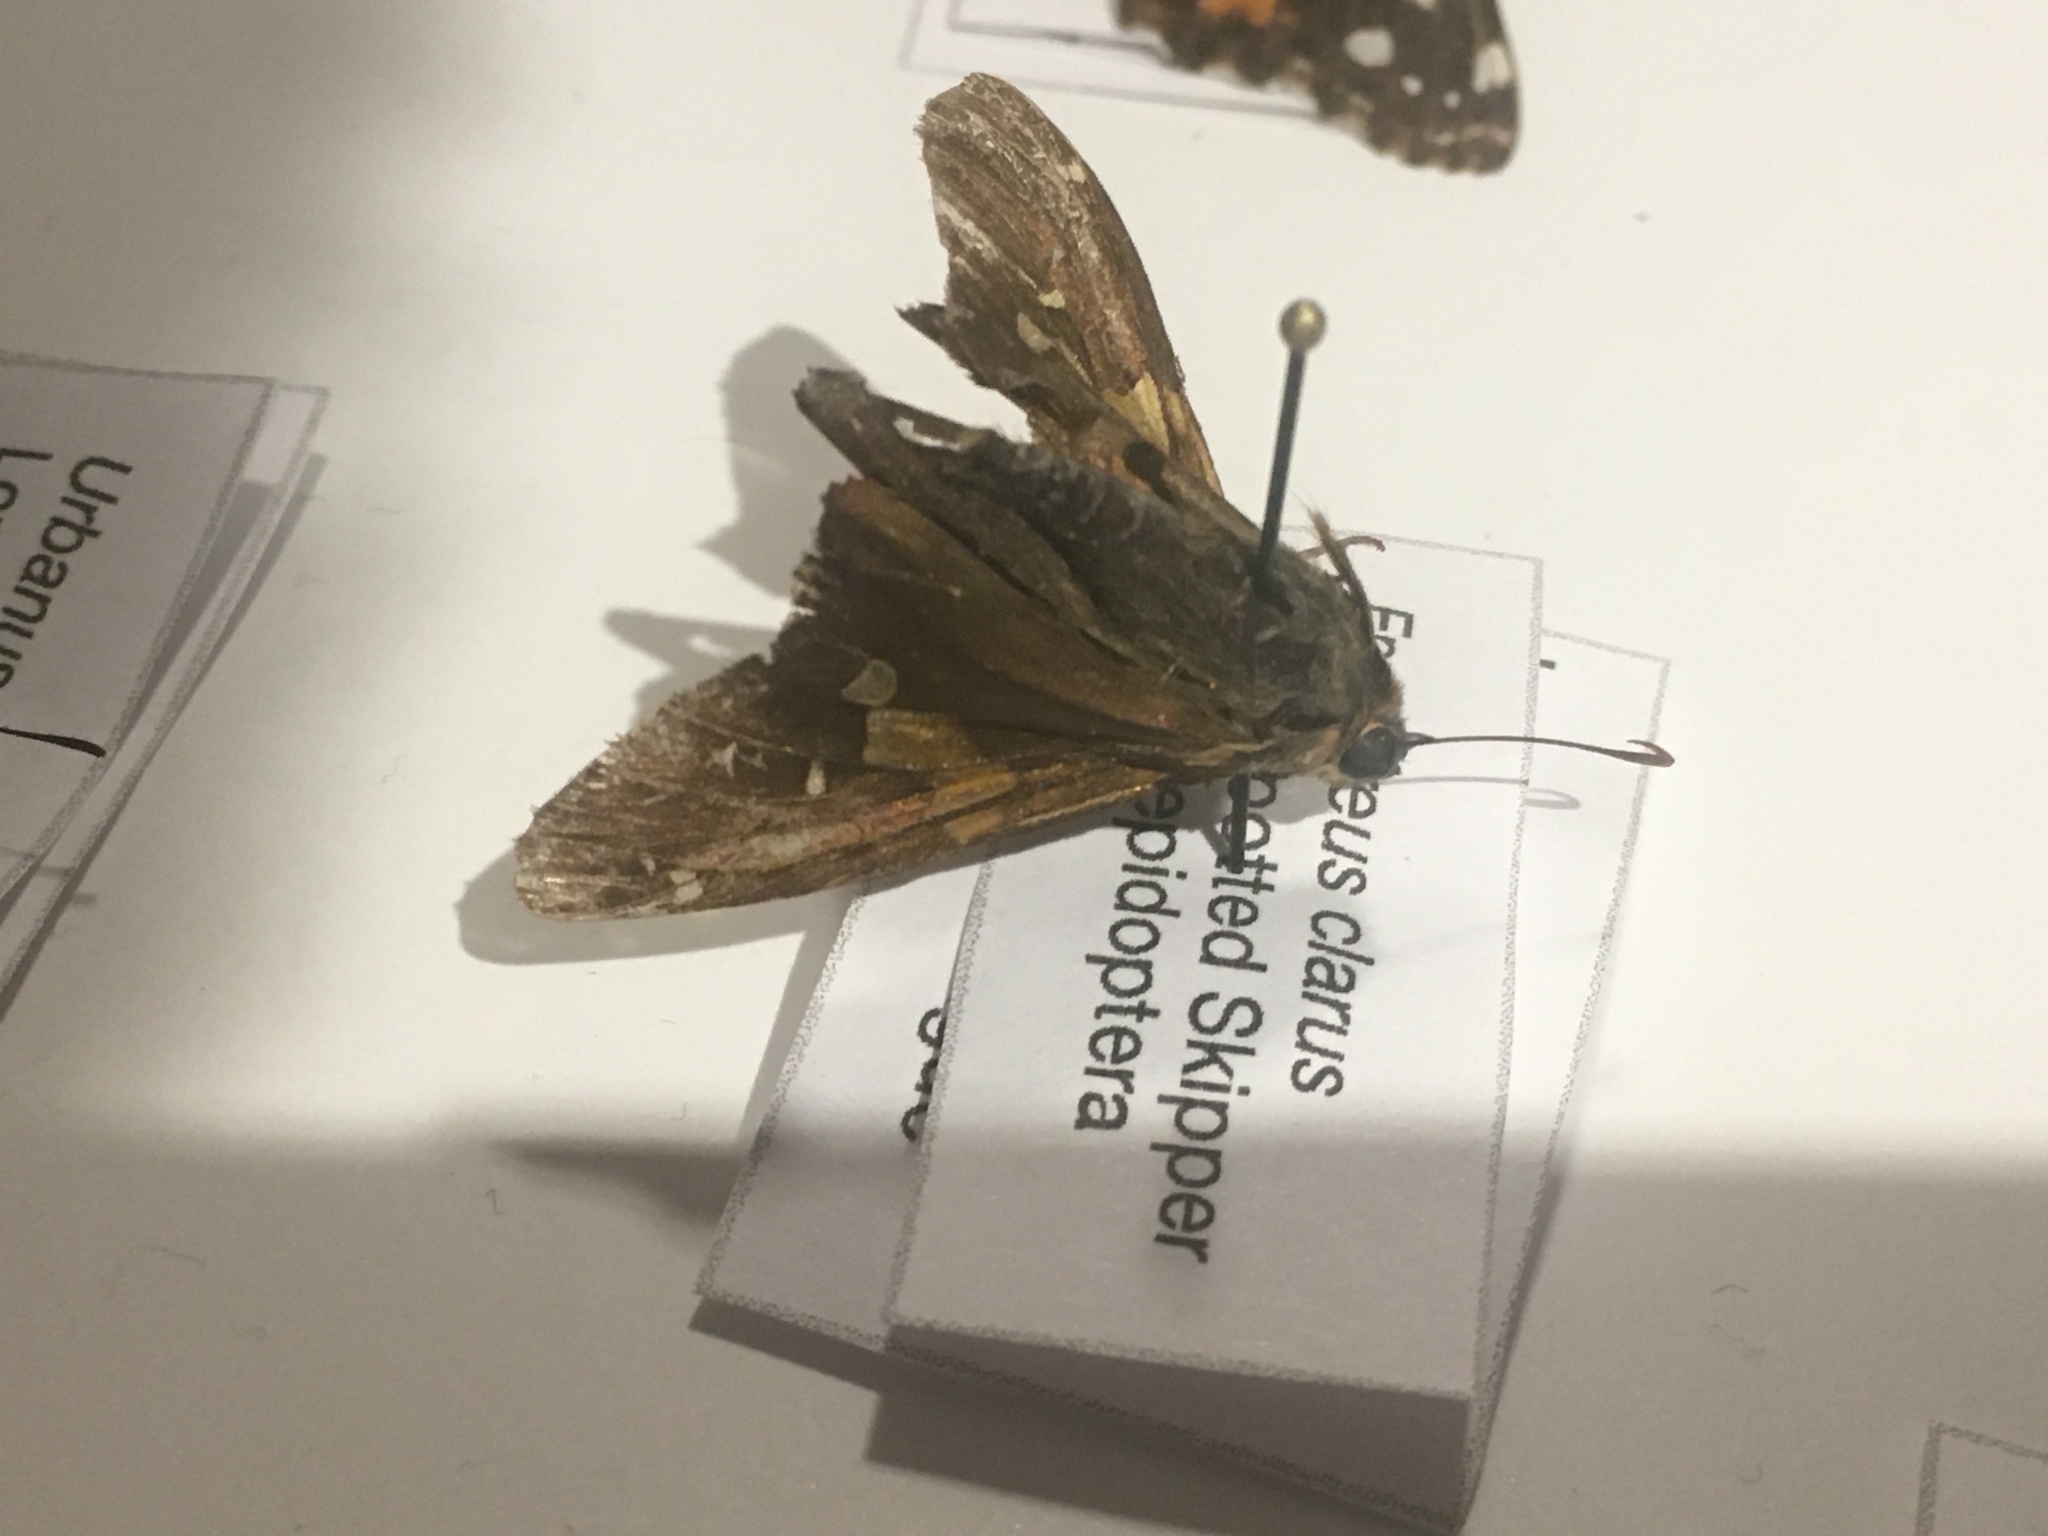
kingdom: Animalia
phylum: Arthropoda
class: Insecta
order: Lepidoptera
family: Hesperiidae
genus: Epargyreus
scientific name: Epargyreus clarus
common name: Silver-spotted skipper
